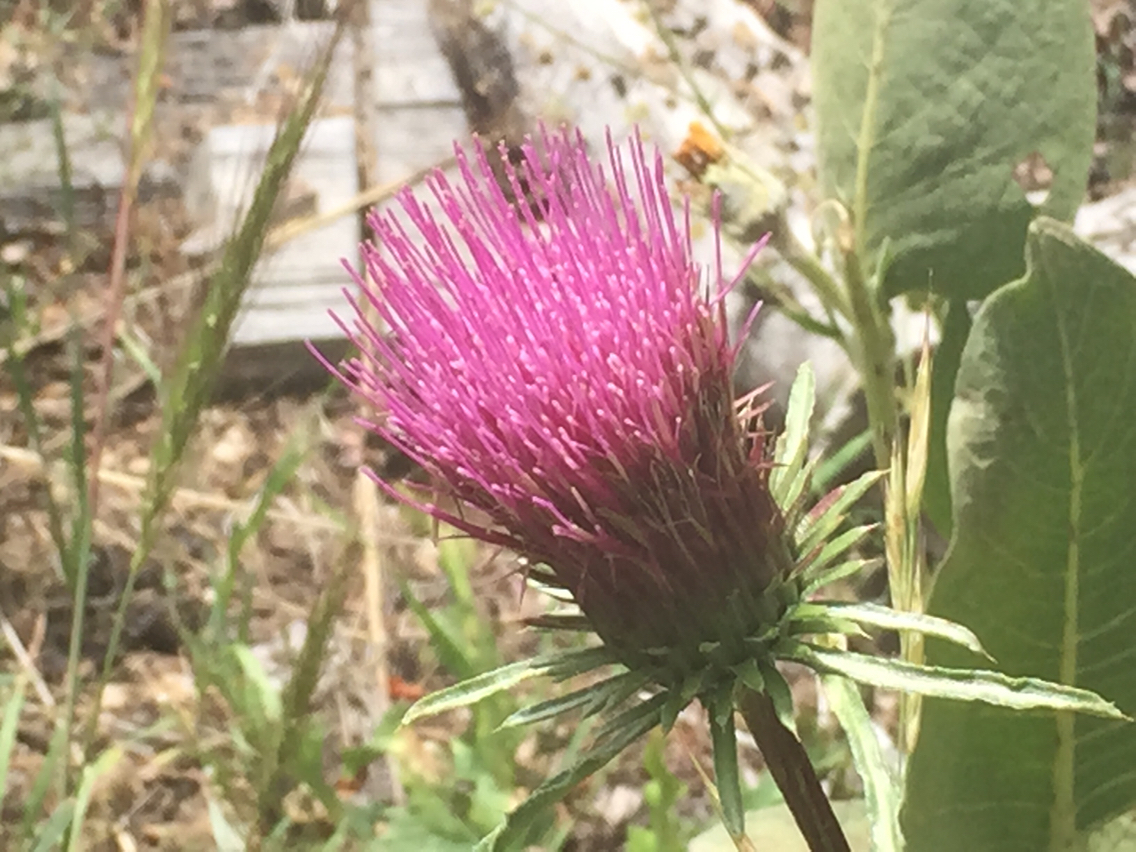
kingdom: Plantae
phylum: Tracheophyta
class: Magnoliopsida
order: Asterales
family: Asteraceae
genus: Cirsium
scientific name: Cirsium andersonii
